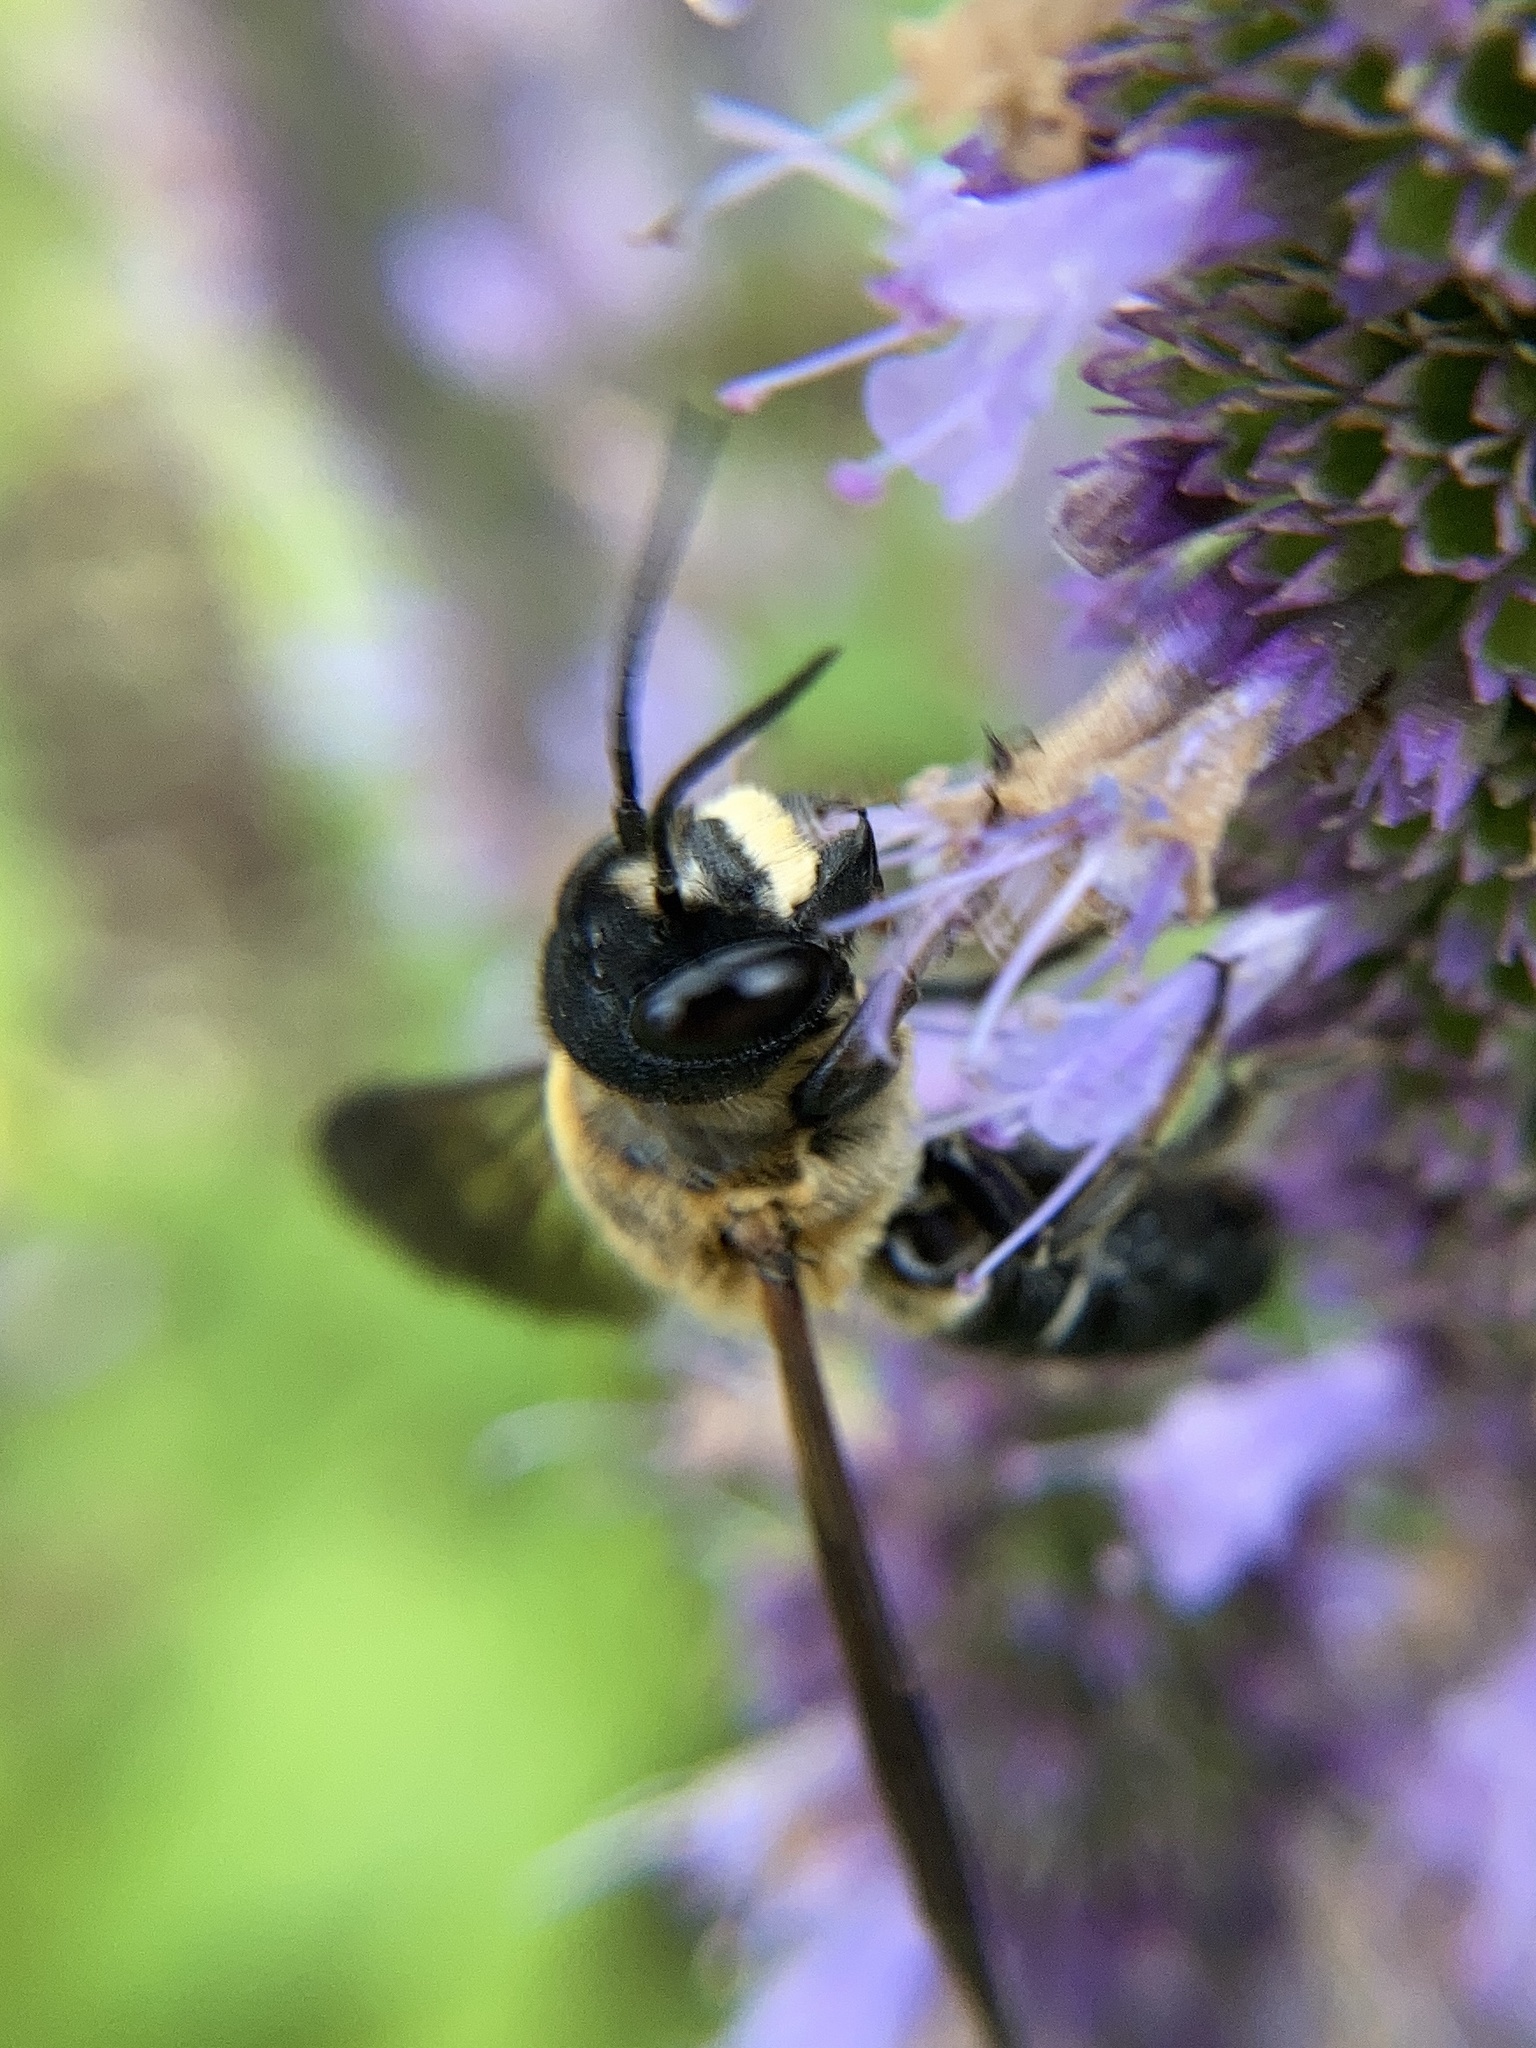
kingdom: Animalia
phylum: Arthropoda
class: Insecta
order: Hymenoptera
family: Megachilidae
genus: Megachile
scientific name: Megachile sculpturalis
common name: Sculptured resin bee
